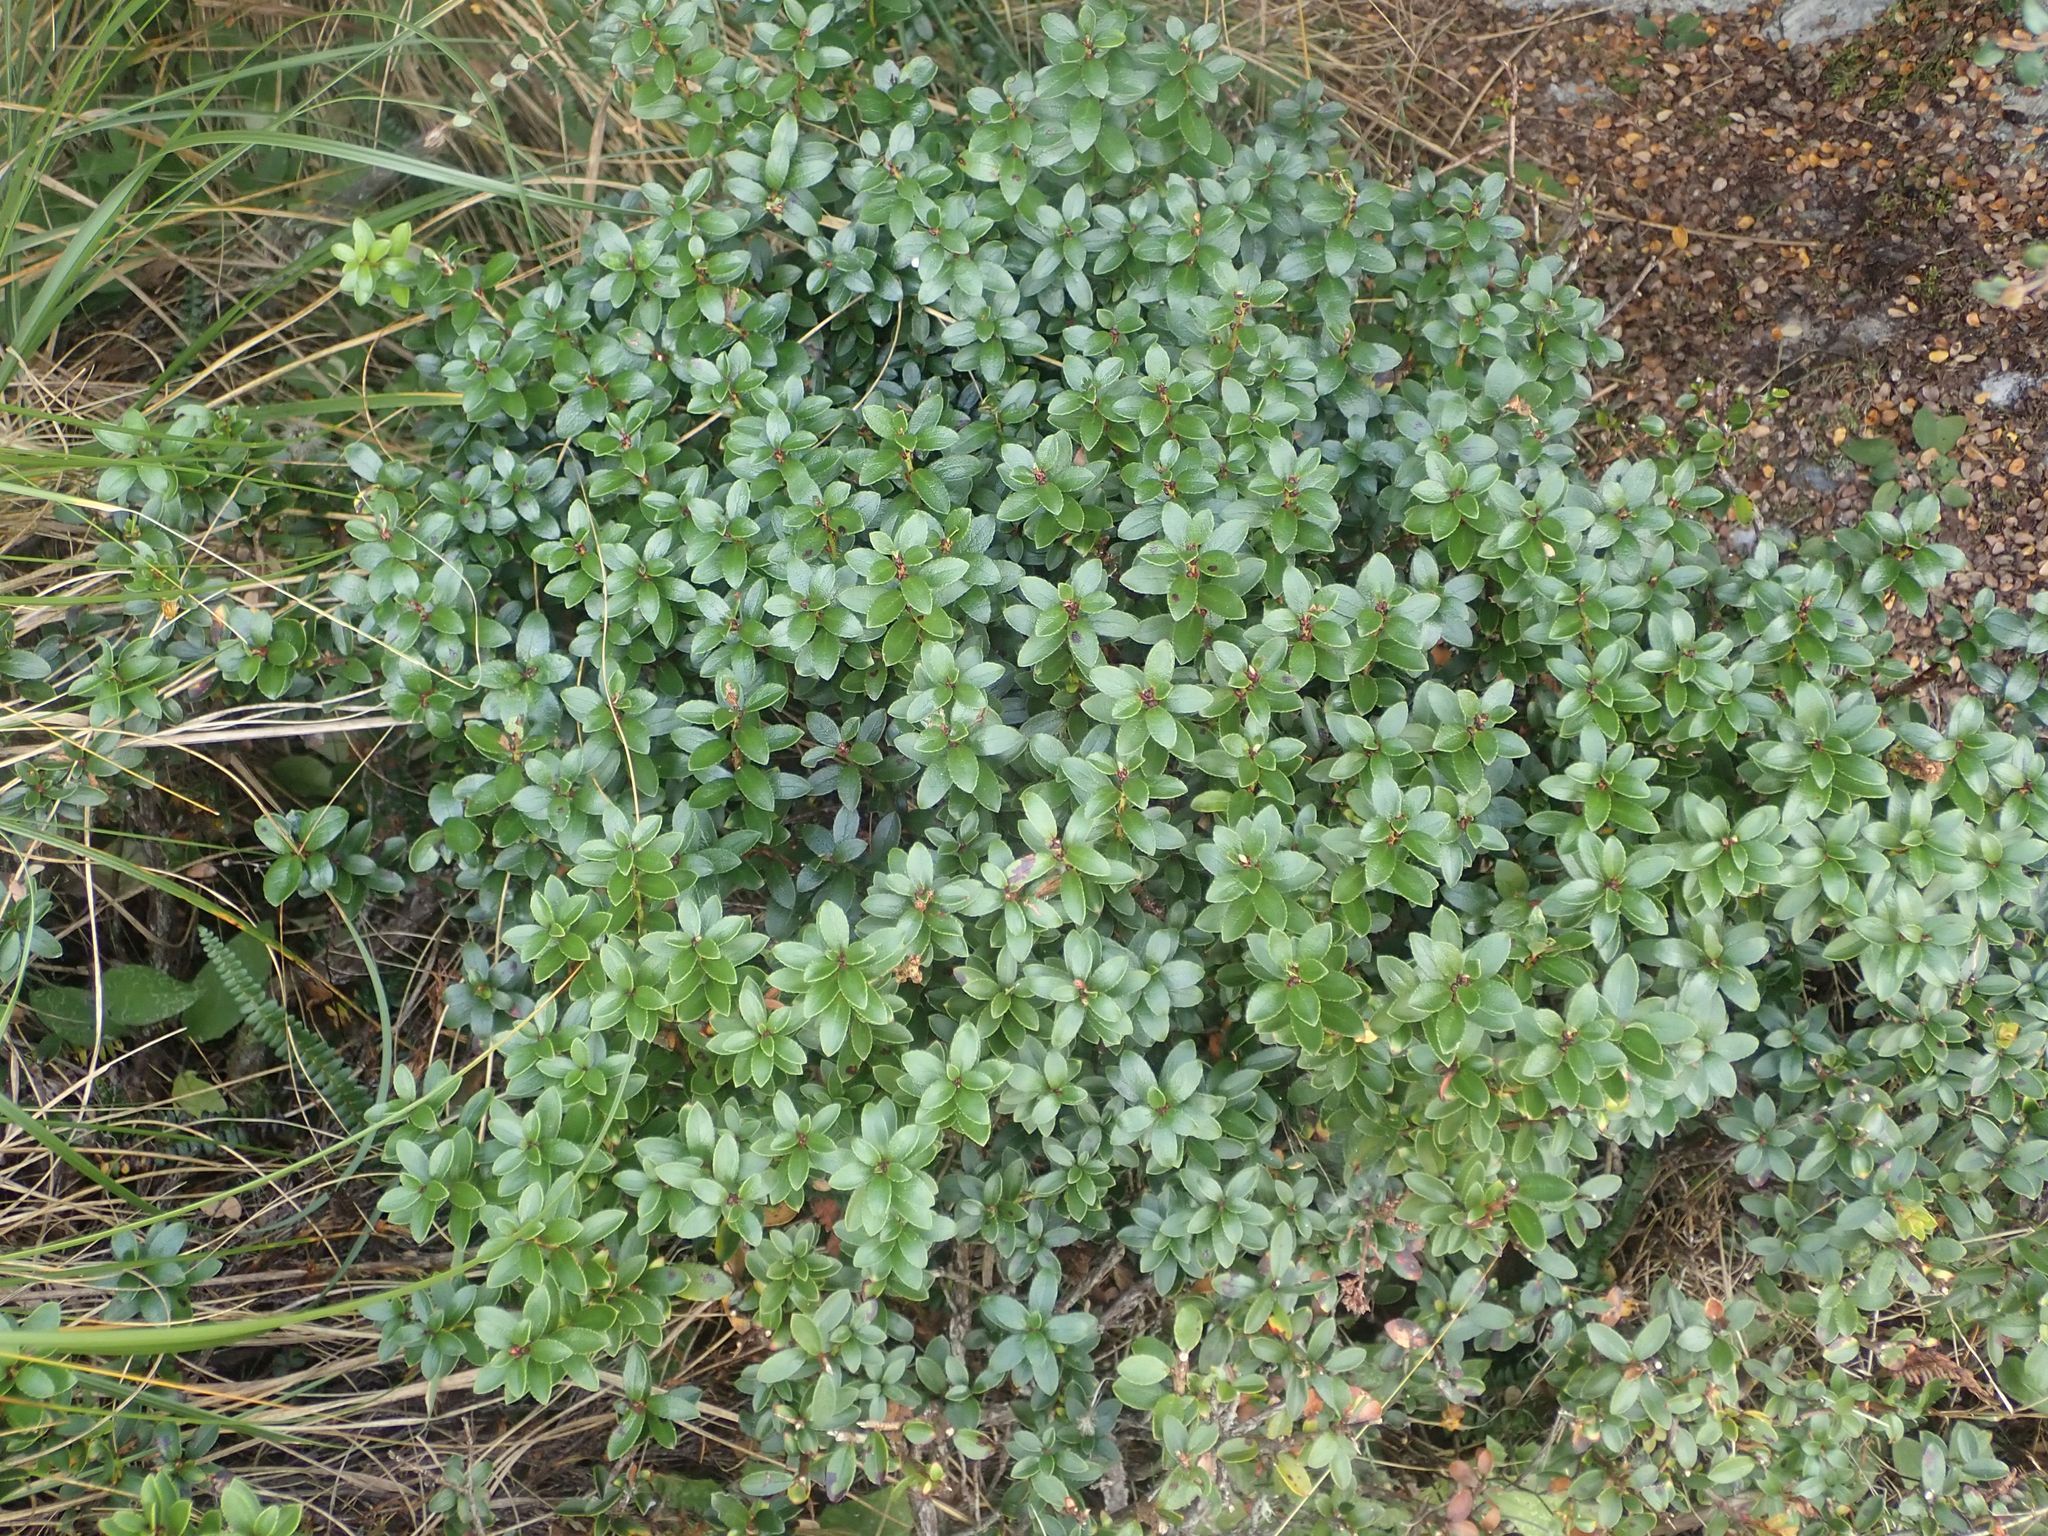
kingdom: Plantae
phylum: Tracheophyta
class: Magnoliopsida
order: Ericales
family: Ericaceae
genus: Gaultheria
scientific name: Gaultheria rupestris
